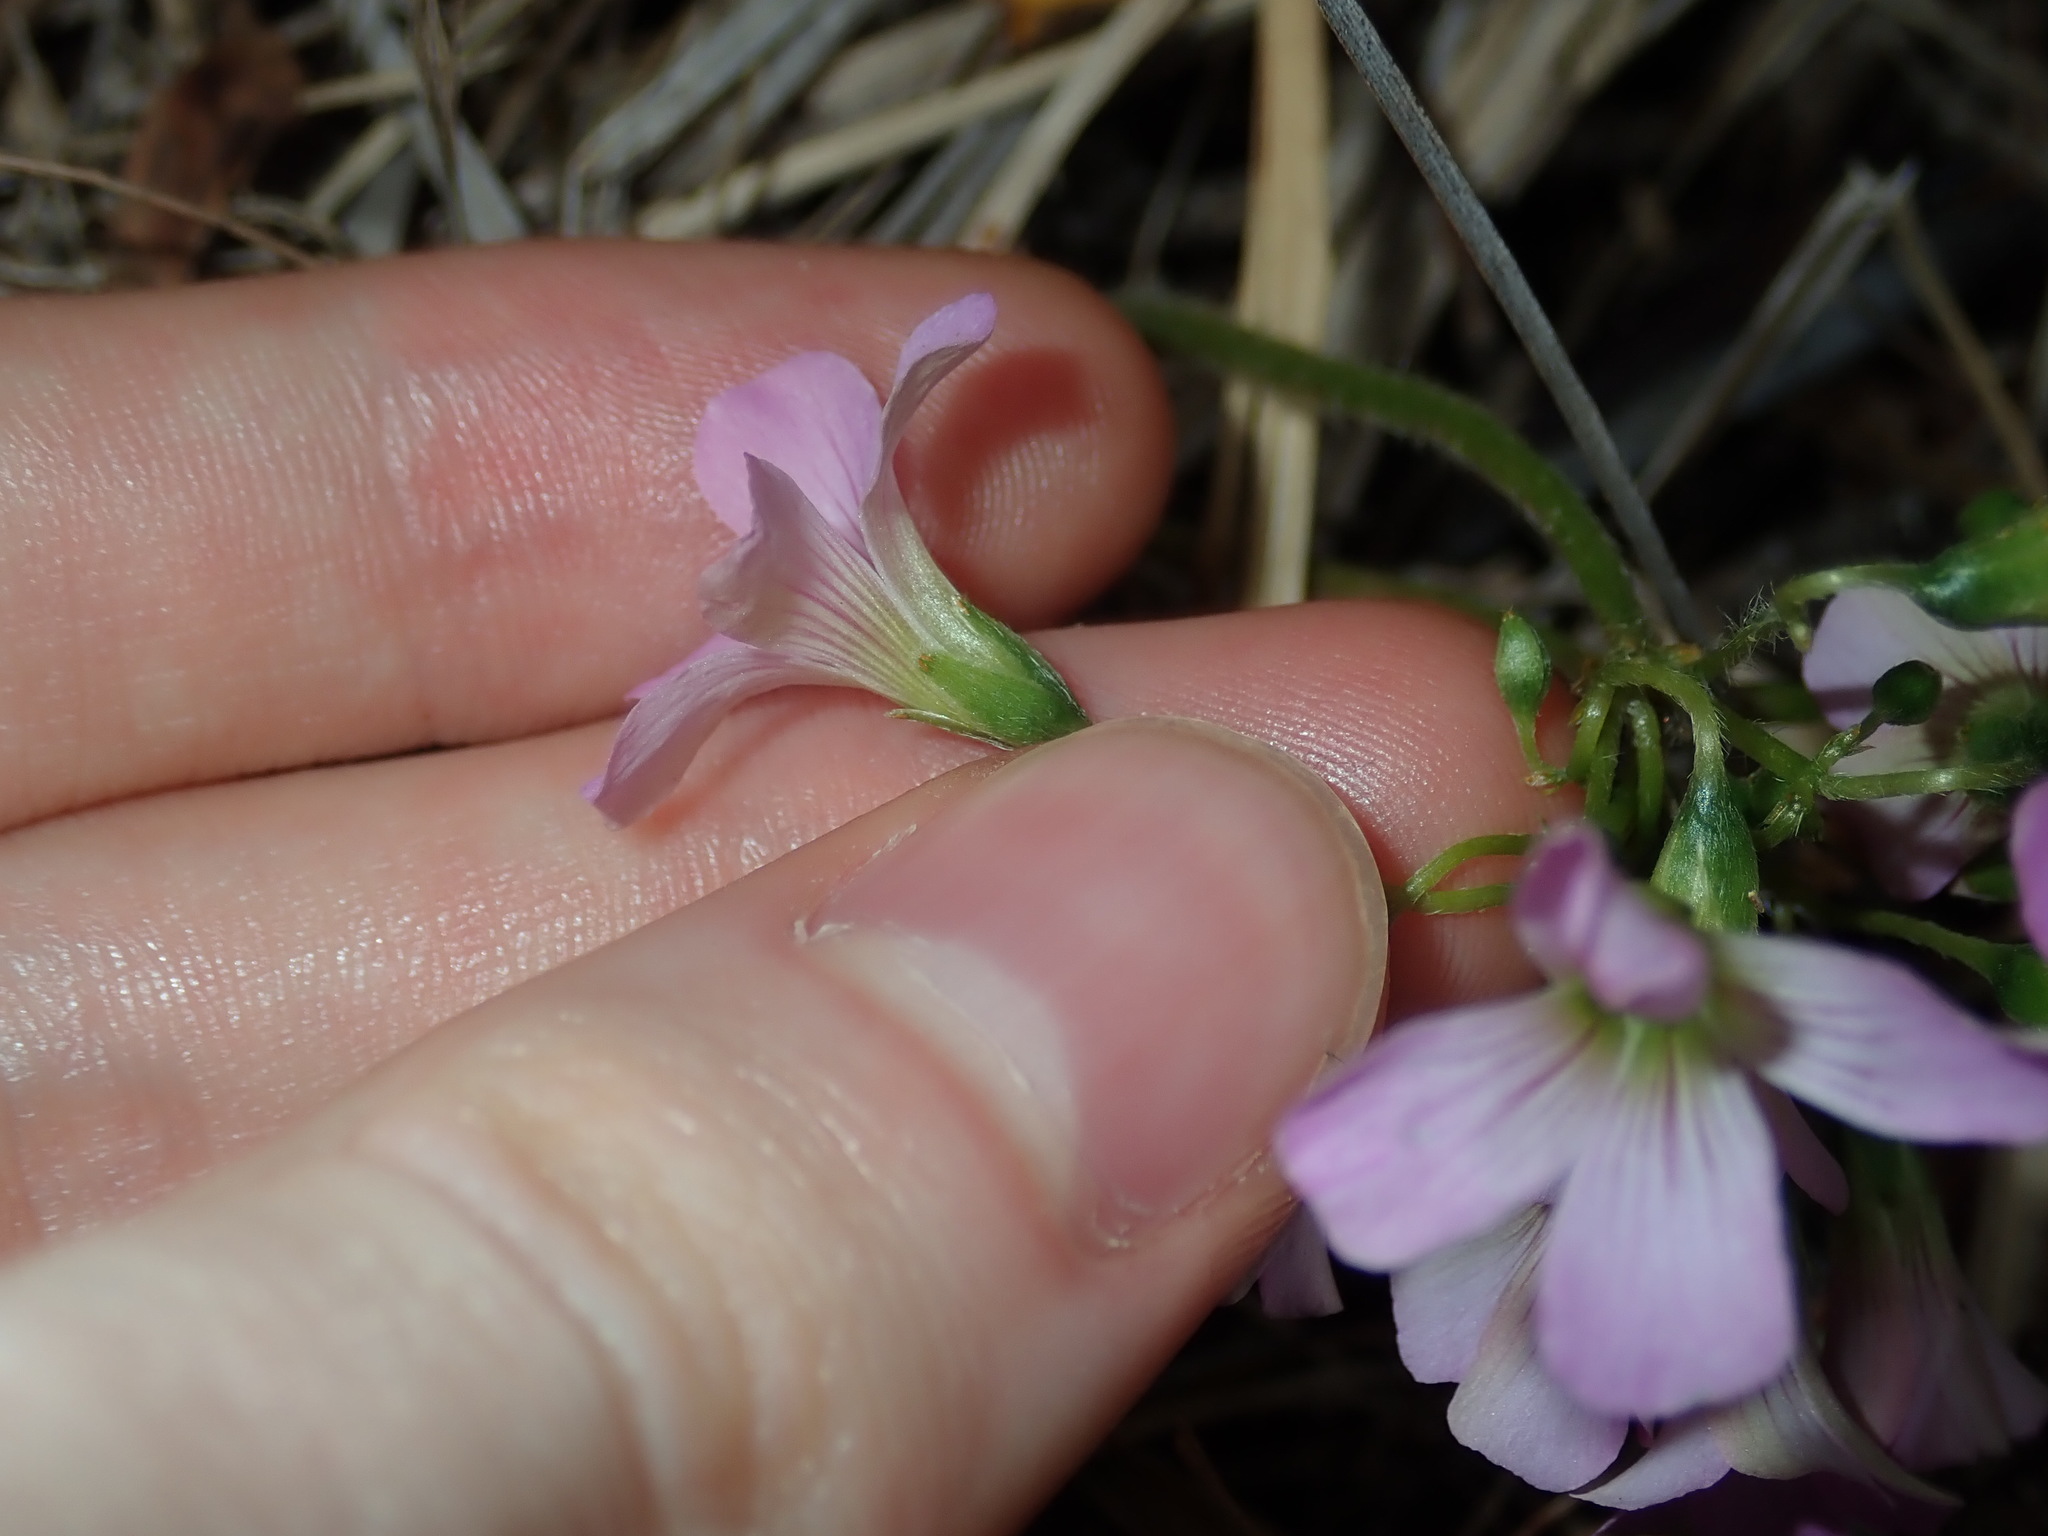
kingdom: Plantae
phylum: Tracheophyta
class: Magnoliopsida
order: Oxalidales
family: Oxalidaceae
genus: Oxalis
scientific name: Oxalis debilis
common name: Large-flowered pink-sorrel
